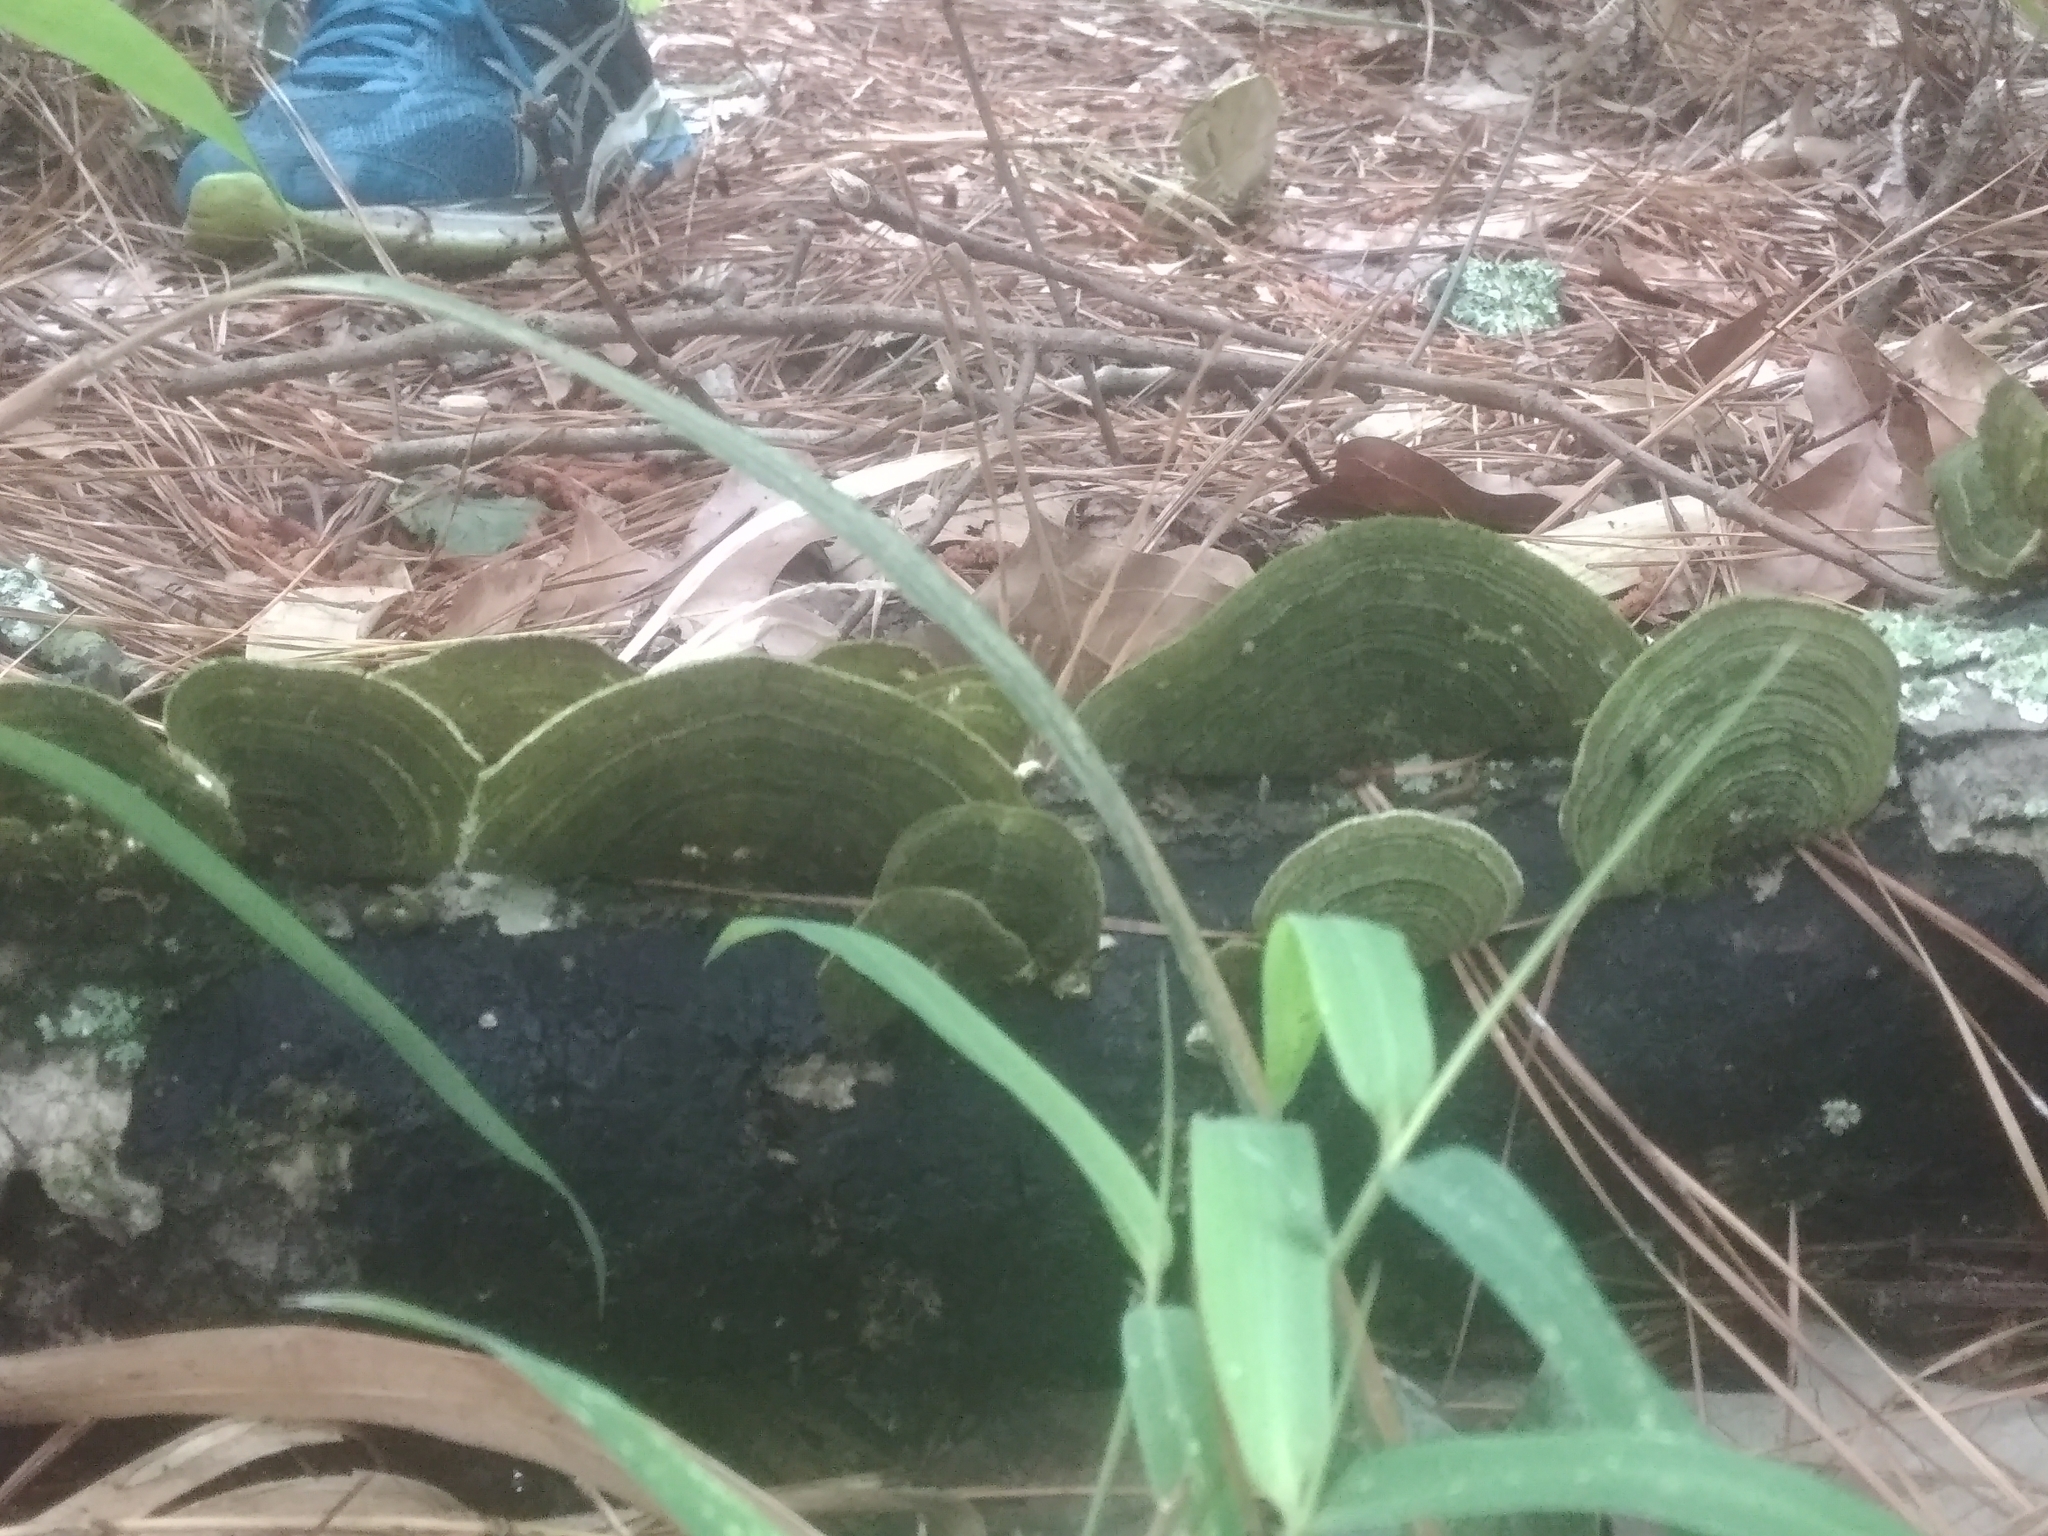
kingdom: Fungi
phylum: Basidiomycota
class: Agaricomycetes
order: Polyporales
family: Polyporaceae
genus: Lenzites
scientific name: Lenzites betulinus
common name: Birch mazegill
